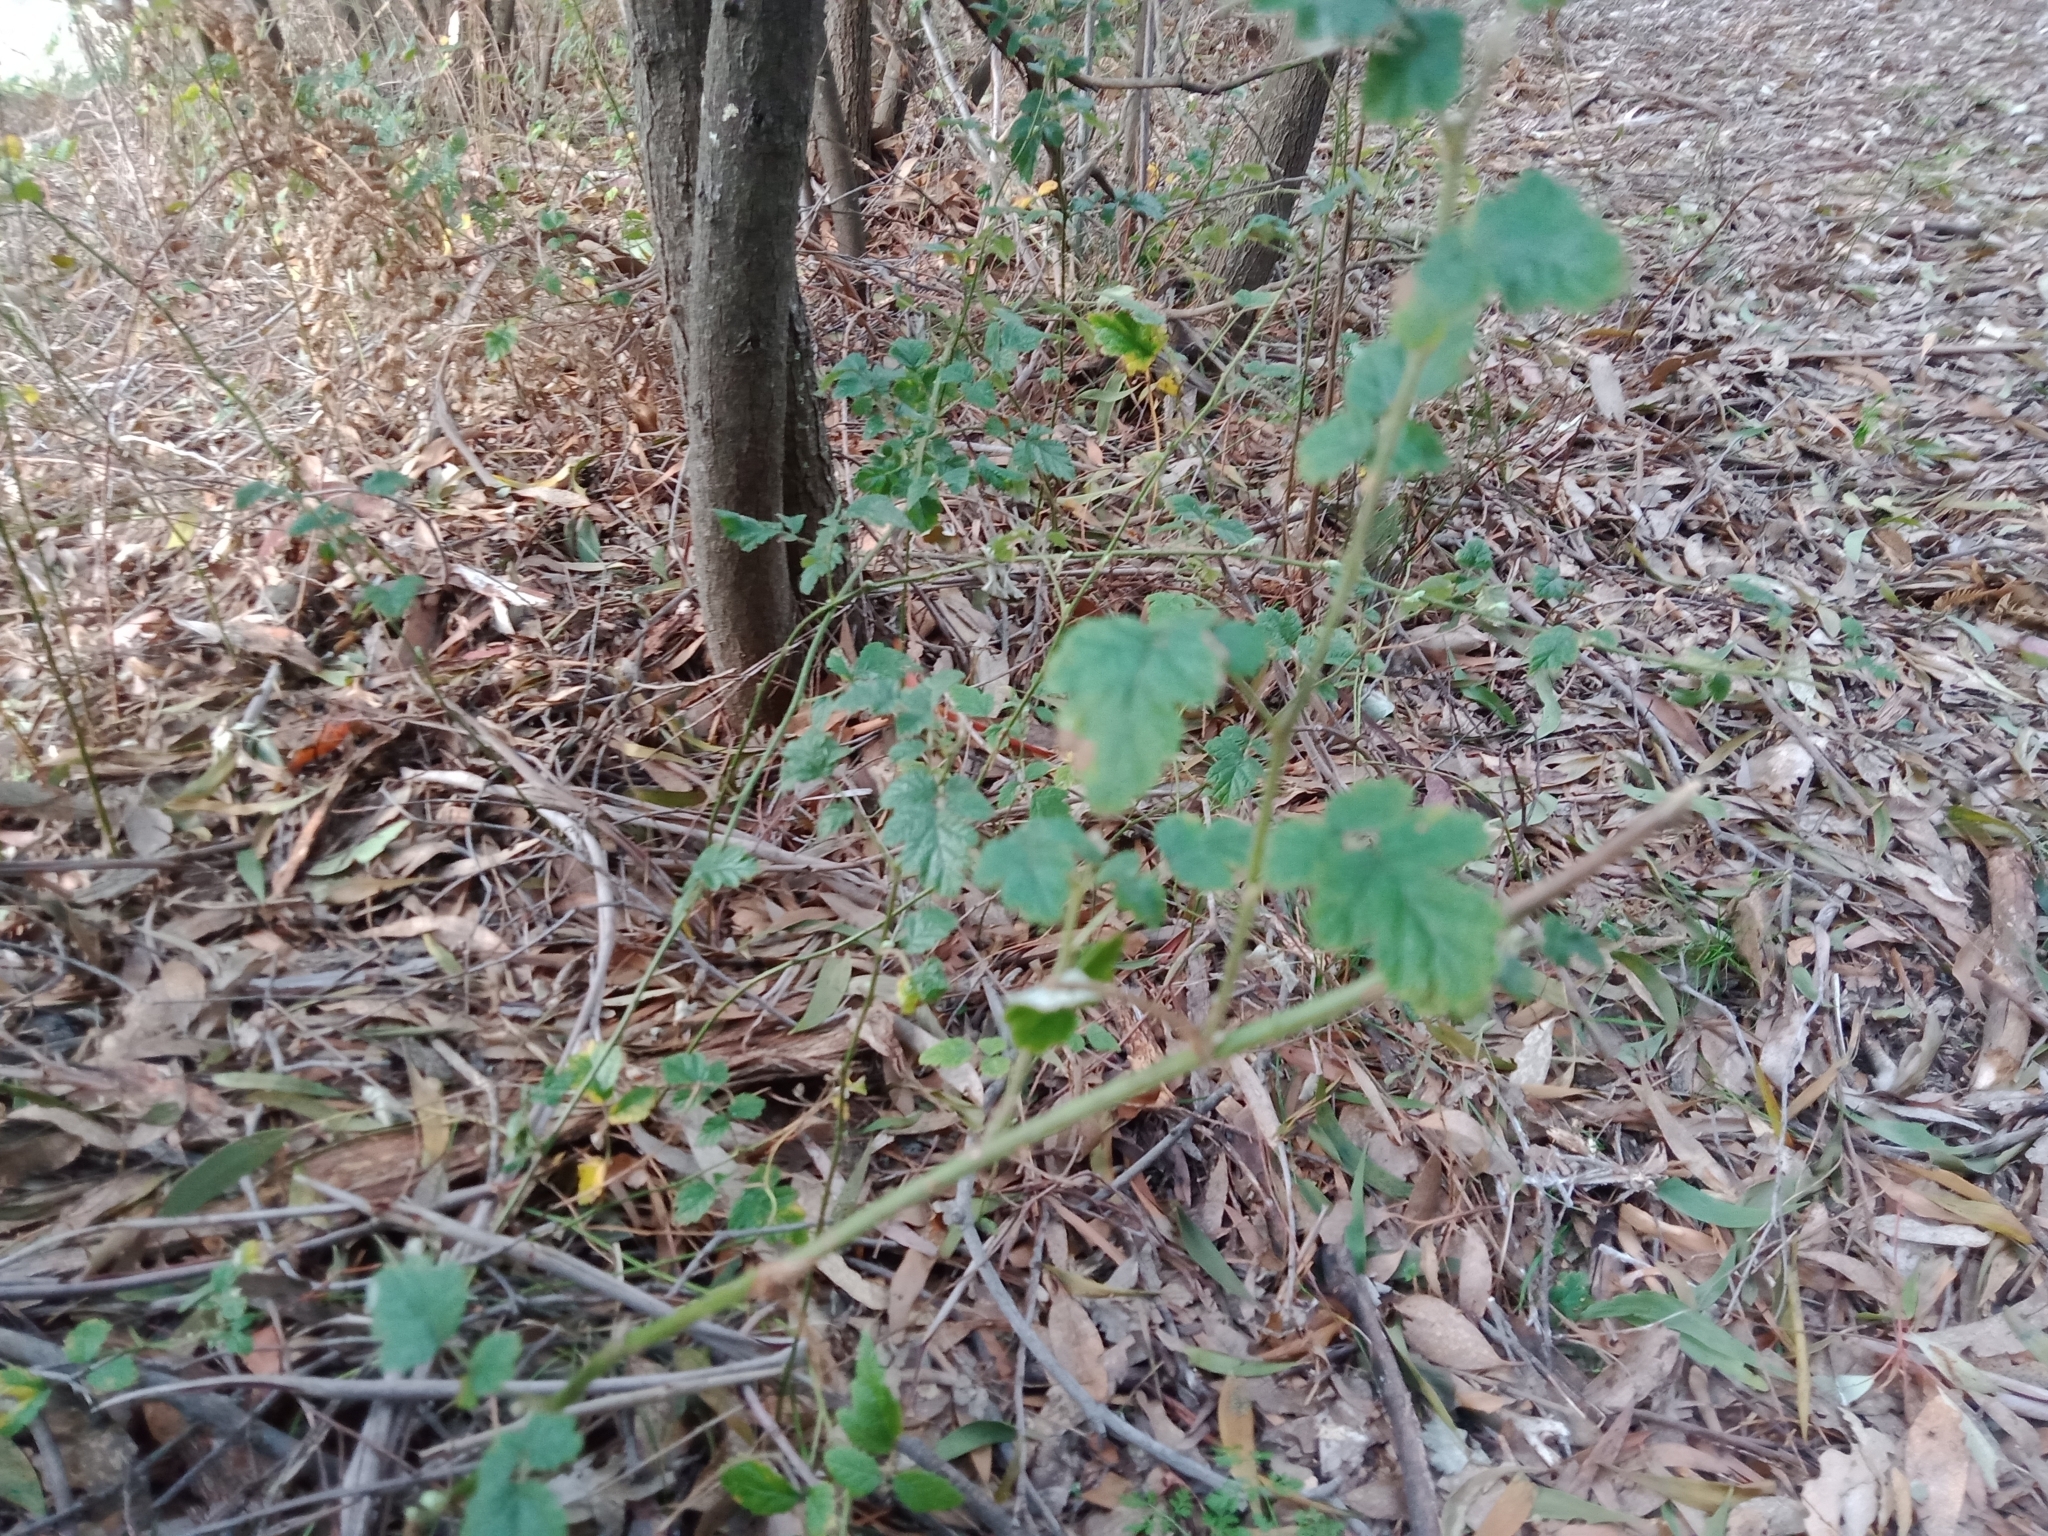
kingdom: Plantae
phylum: Tracheophyta
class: Magnoliopsida
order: Rosales
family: Rosaceae
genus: Rubus
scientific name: Rubus parvifolius
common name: Threeleaf blackberry
